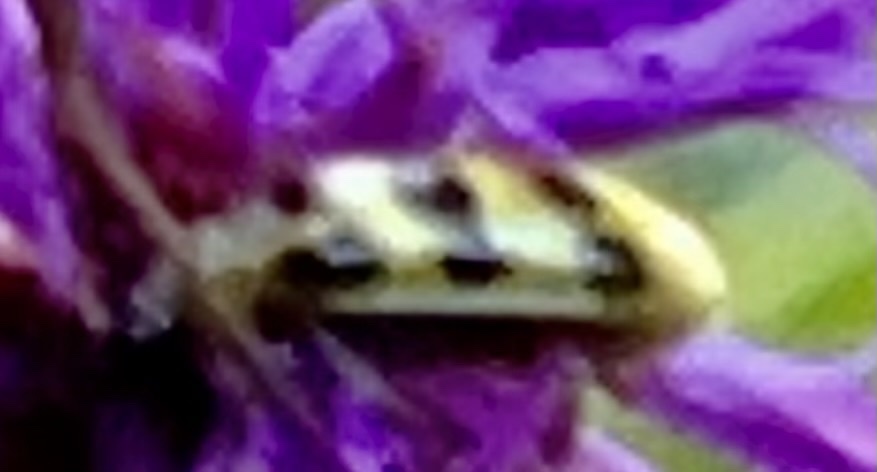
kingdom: Animalia
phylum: Arthropoda
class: Insecta
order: Coleoptera
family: Chrysomelidae
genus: Diabrotica
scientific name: Diabrotica undecimpunctata
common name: Spotted cucumber beetle
